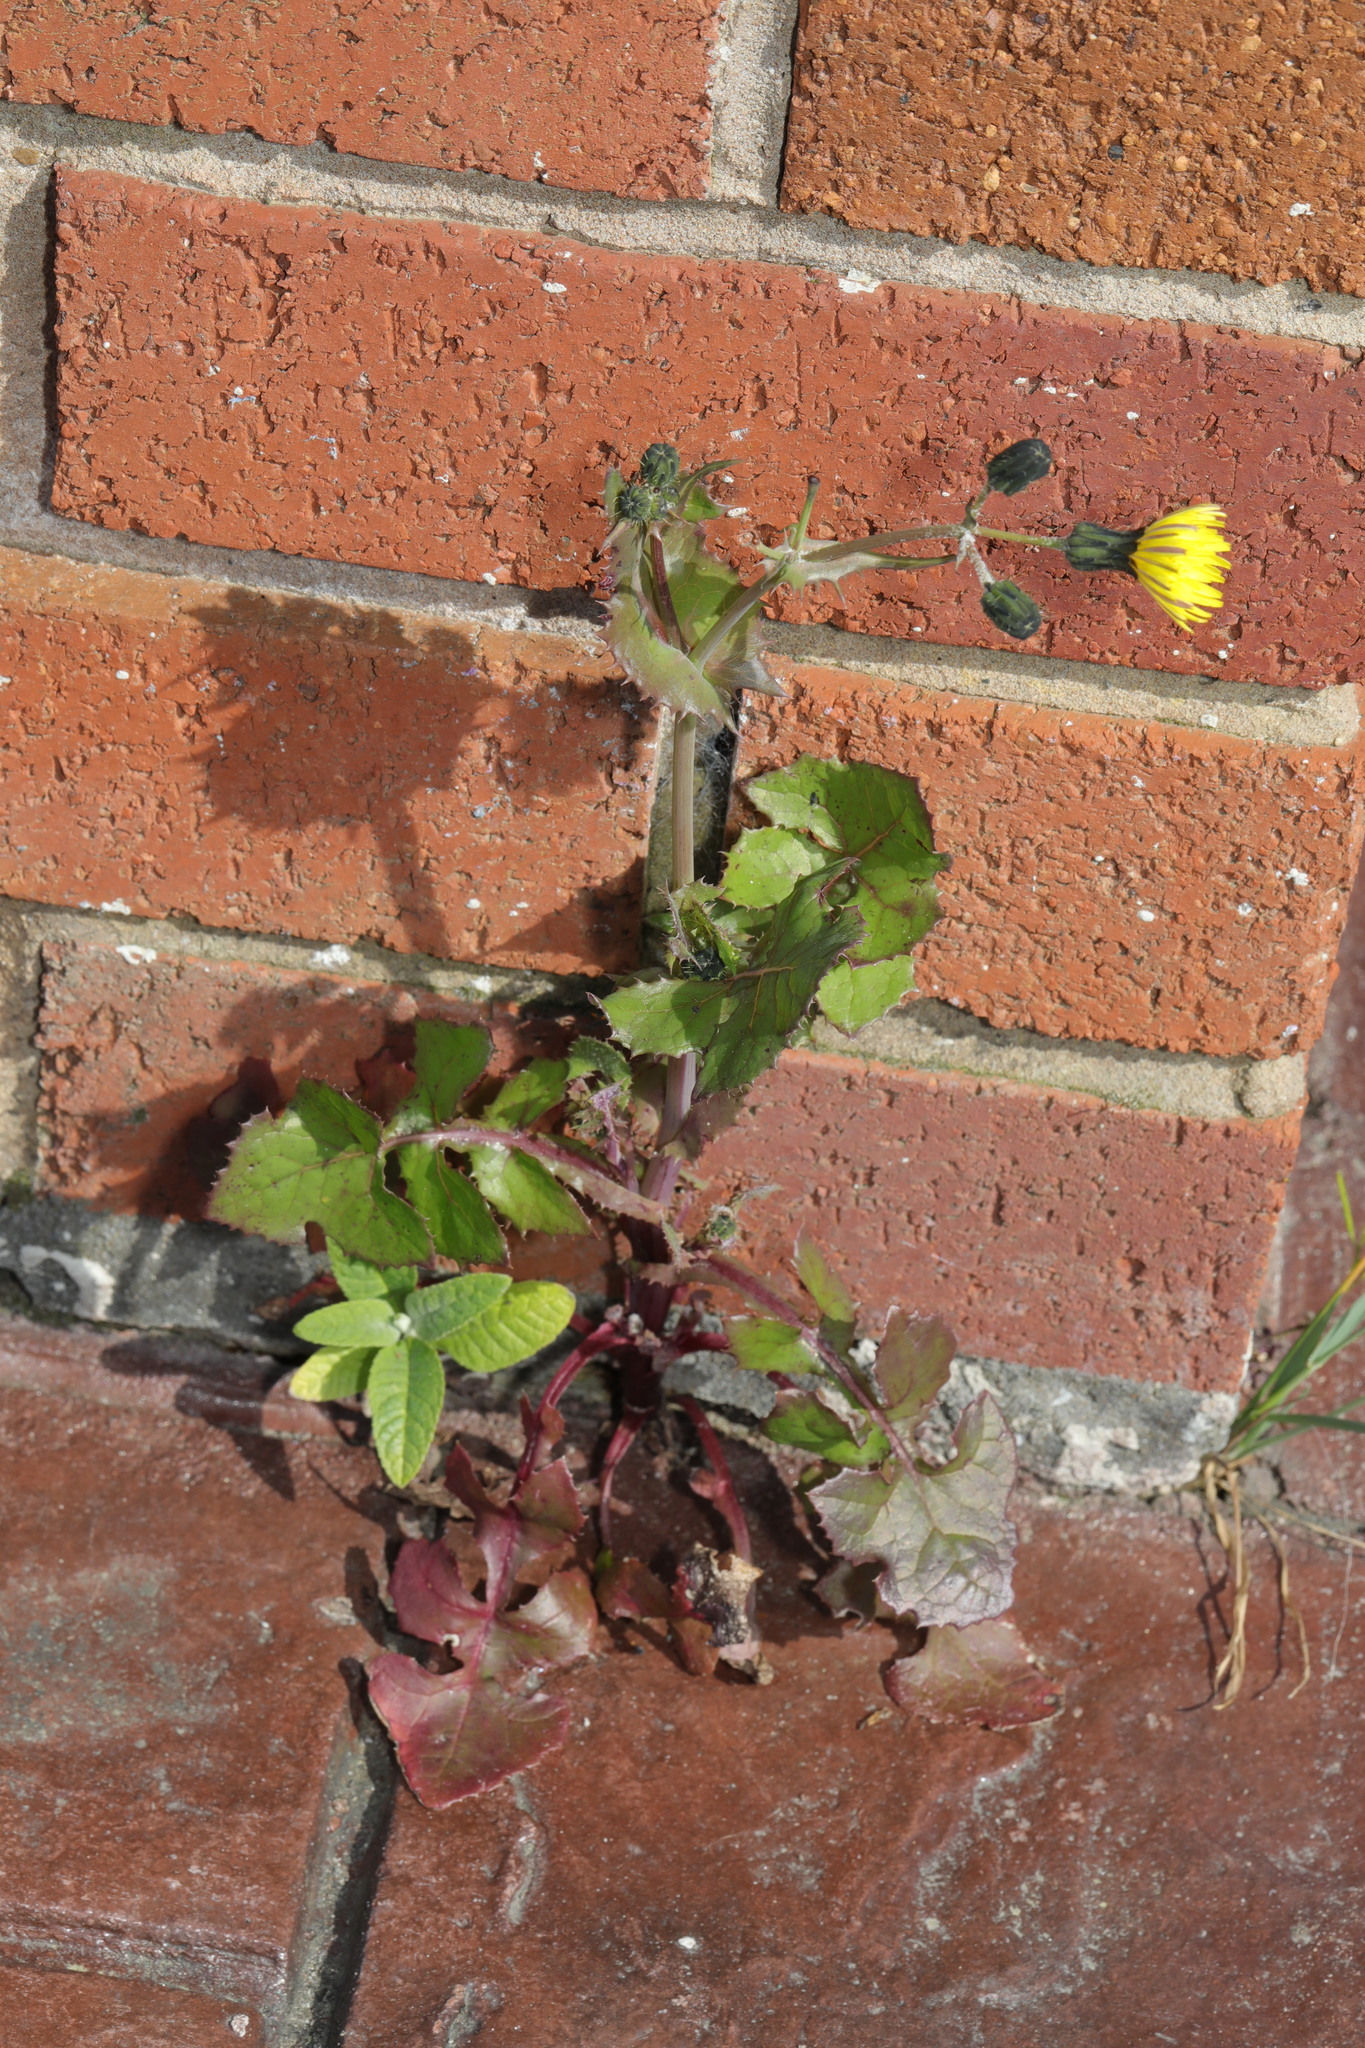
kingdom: Plantae
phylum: Tracheophyta
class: Magnoliopsida
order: Asterales
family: Asteraceae
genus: Sonchus
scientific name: Sonchus oleraceus
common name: Common sowthistle
